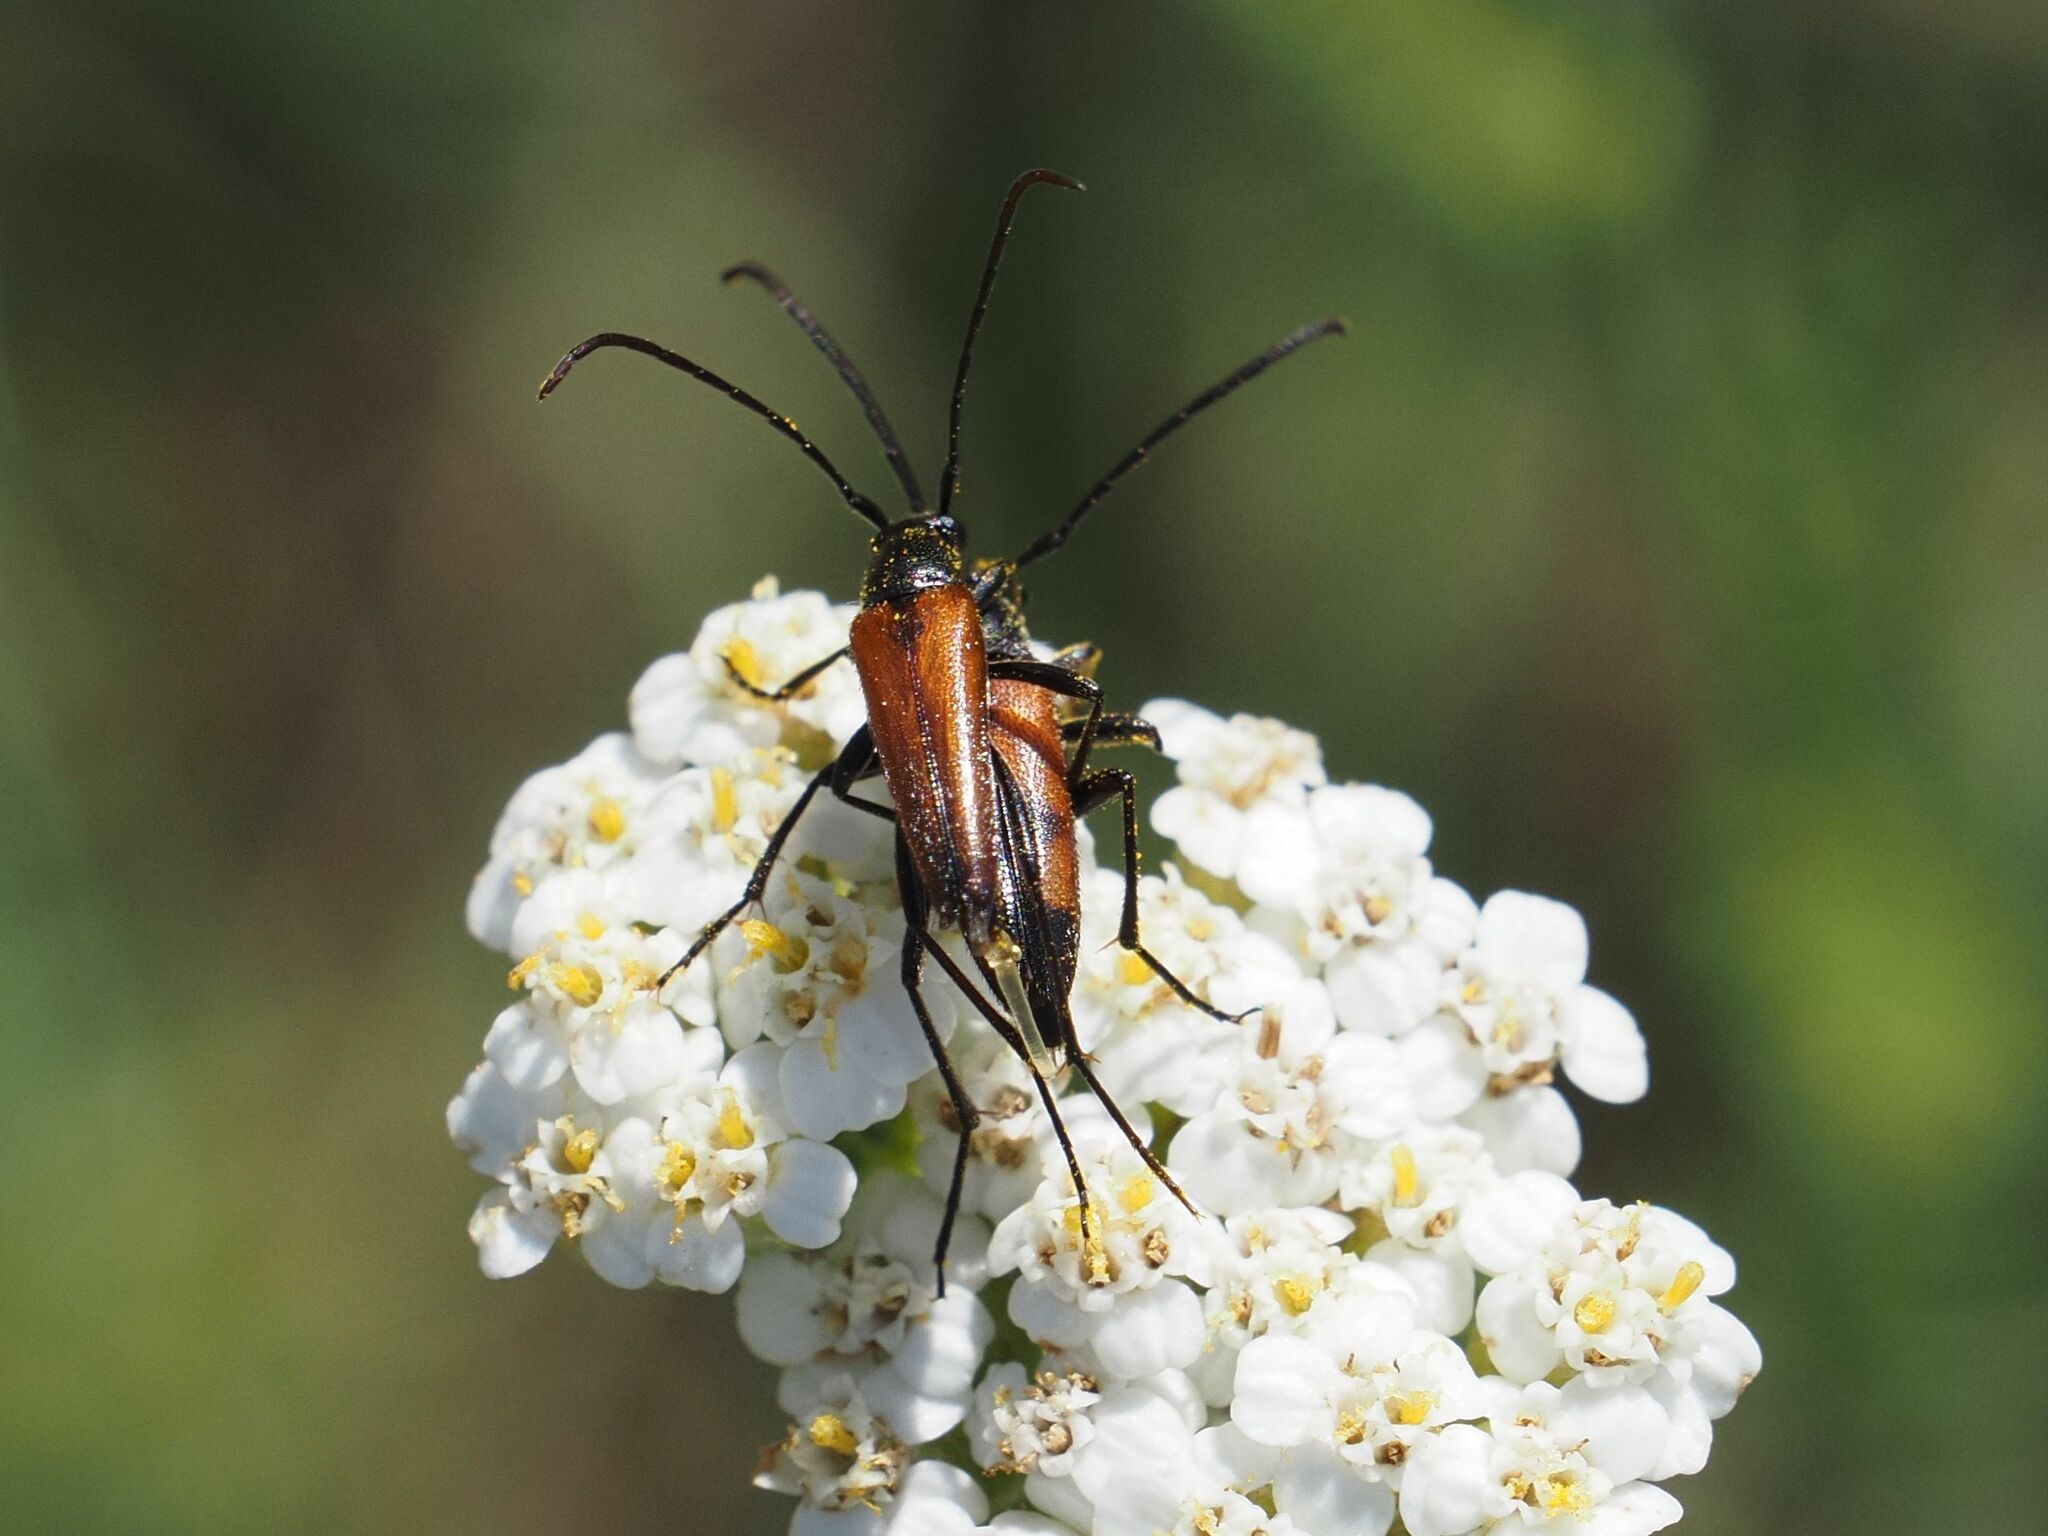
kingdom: Animalia
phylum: Arthropoda
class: Insecta
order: Coleoptera
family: Cerambycidae
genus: Stenurella
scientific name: Stenurella bifasciata
